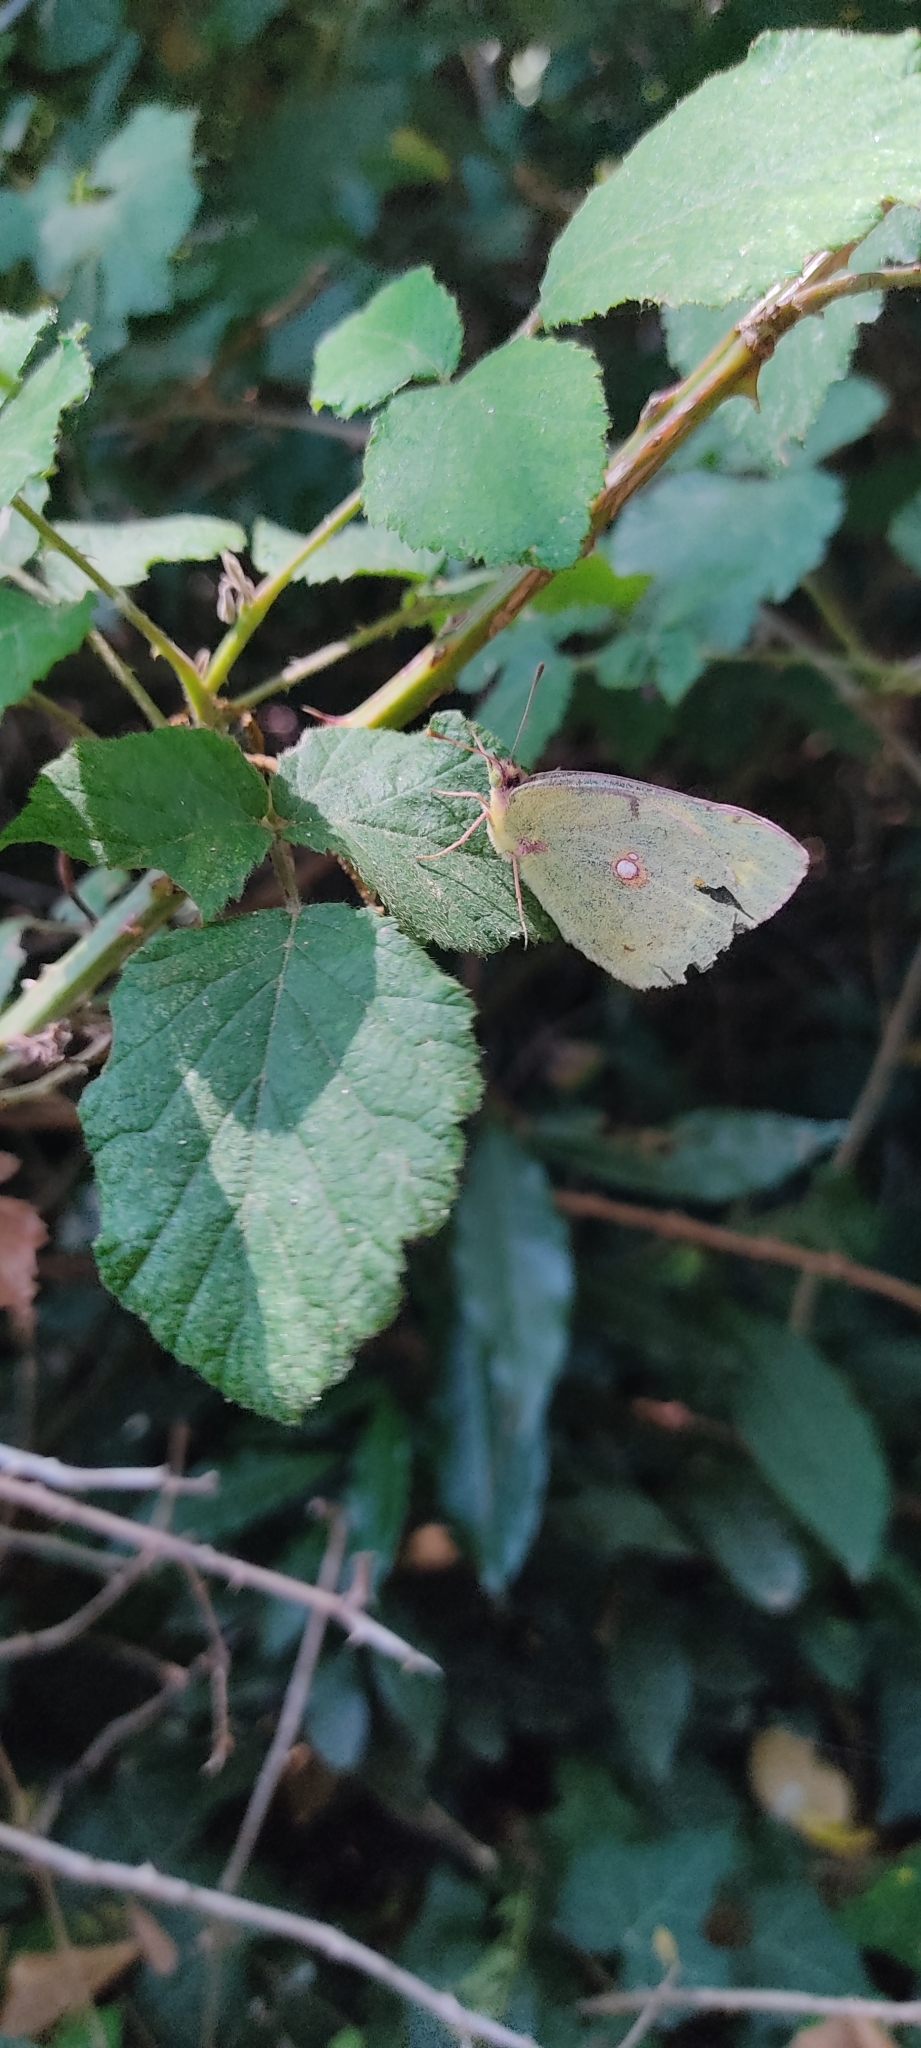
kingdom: Animalia
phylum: Arthropoda
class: Insecta
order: Lepidoptera
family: Pieridae
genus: Colias
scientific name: Colias croceus
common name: Clouded yellow
